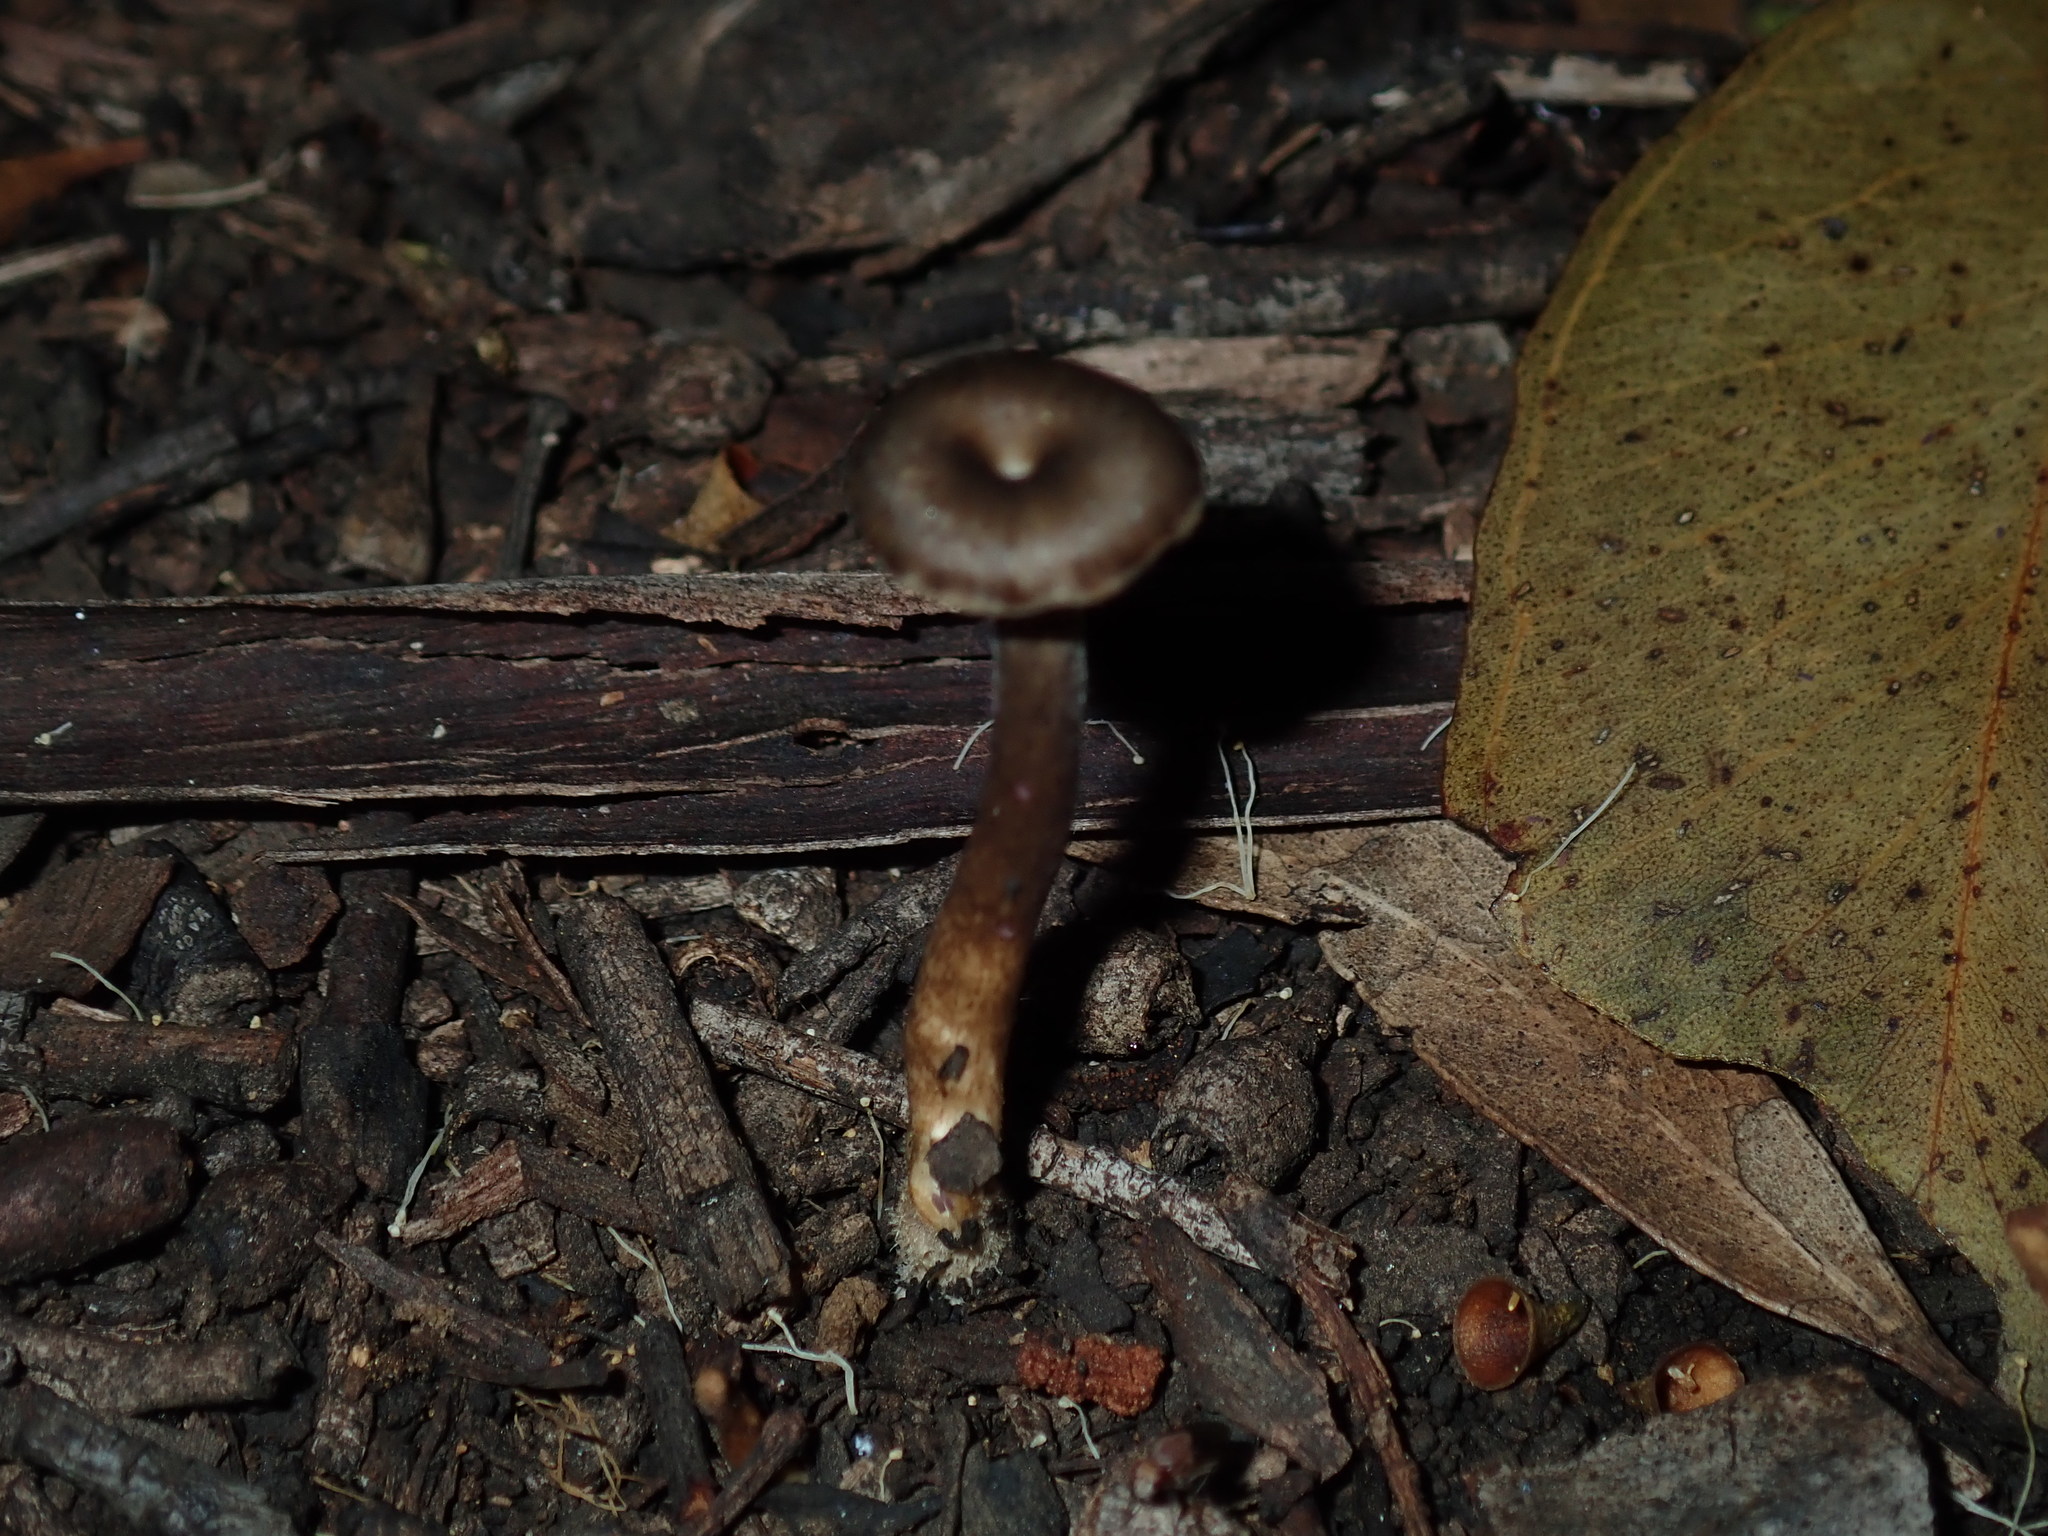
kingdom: Fungi
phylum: Basidiomycota
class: Agaricomycetes
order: Polyporales
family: Polyporaceae
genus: Lentinus
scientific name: Lentinus arcularius
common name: Spring polypore
